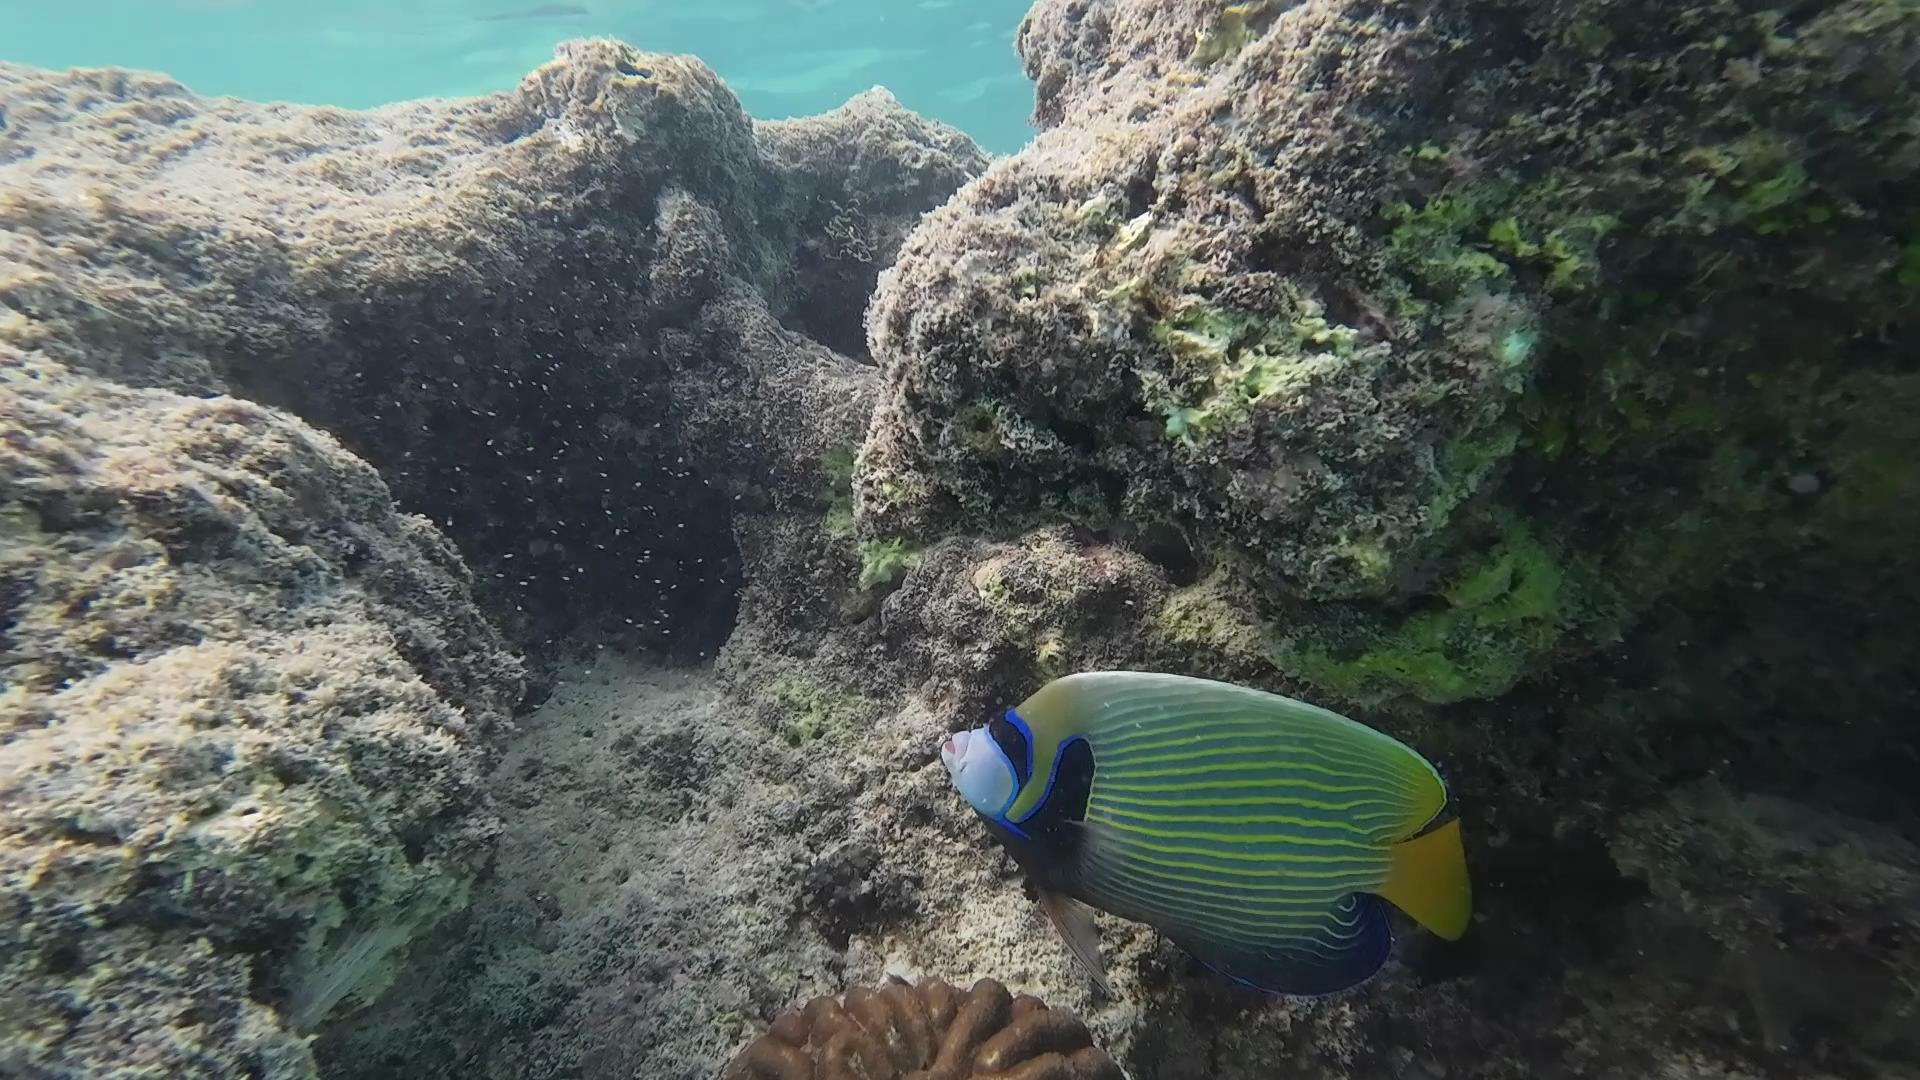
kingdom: Animalia
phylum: Chordata
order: Perciformes
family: Pomacanthidae
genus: Pomacanthus
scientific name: Pomacanthus imperator
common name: Emperor angelfish
